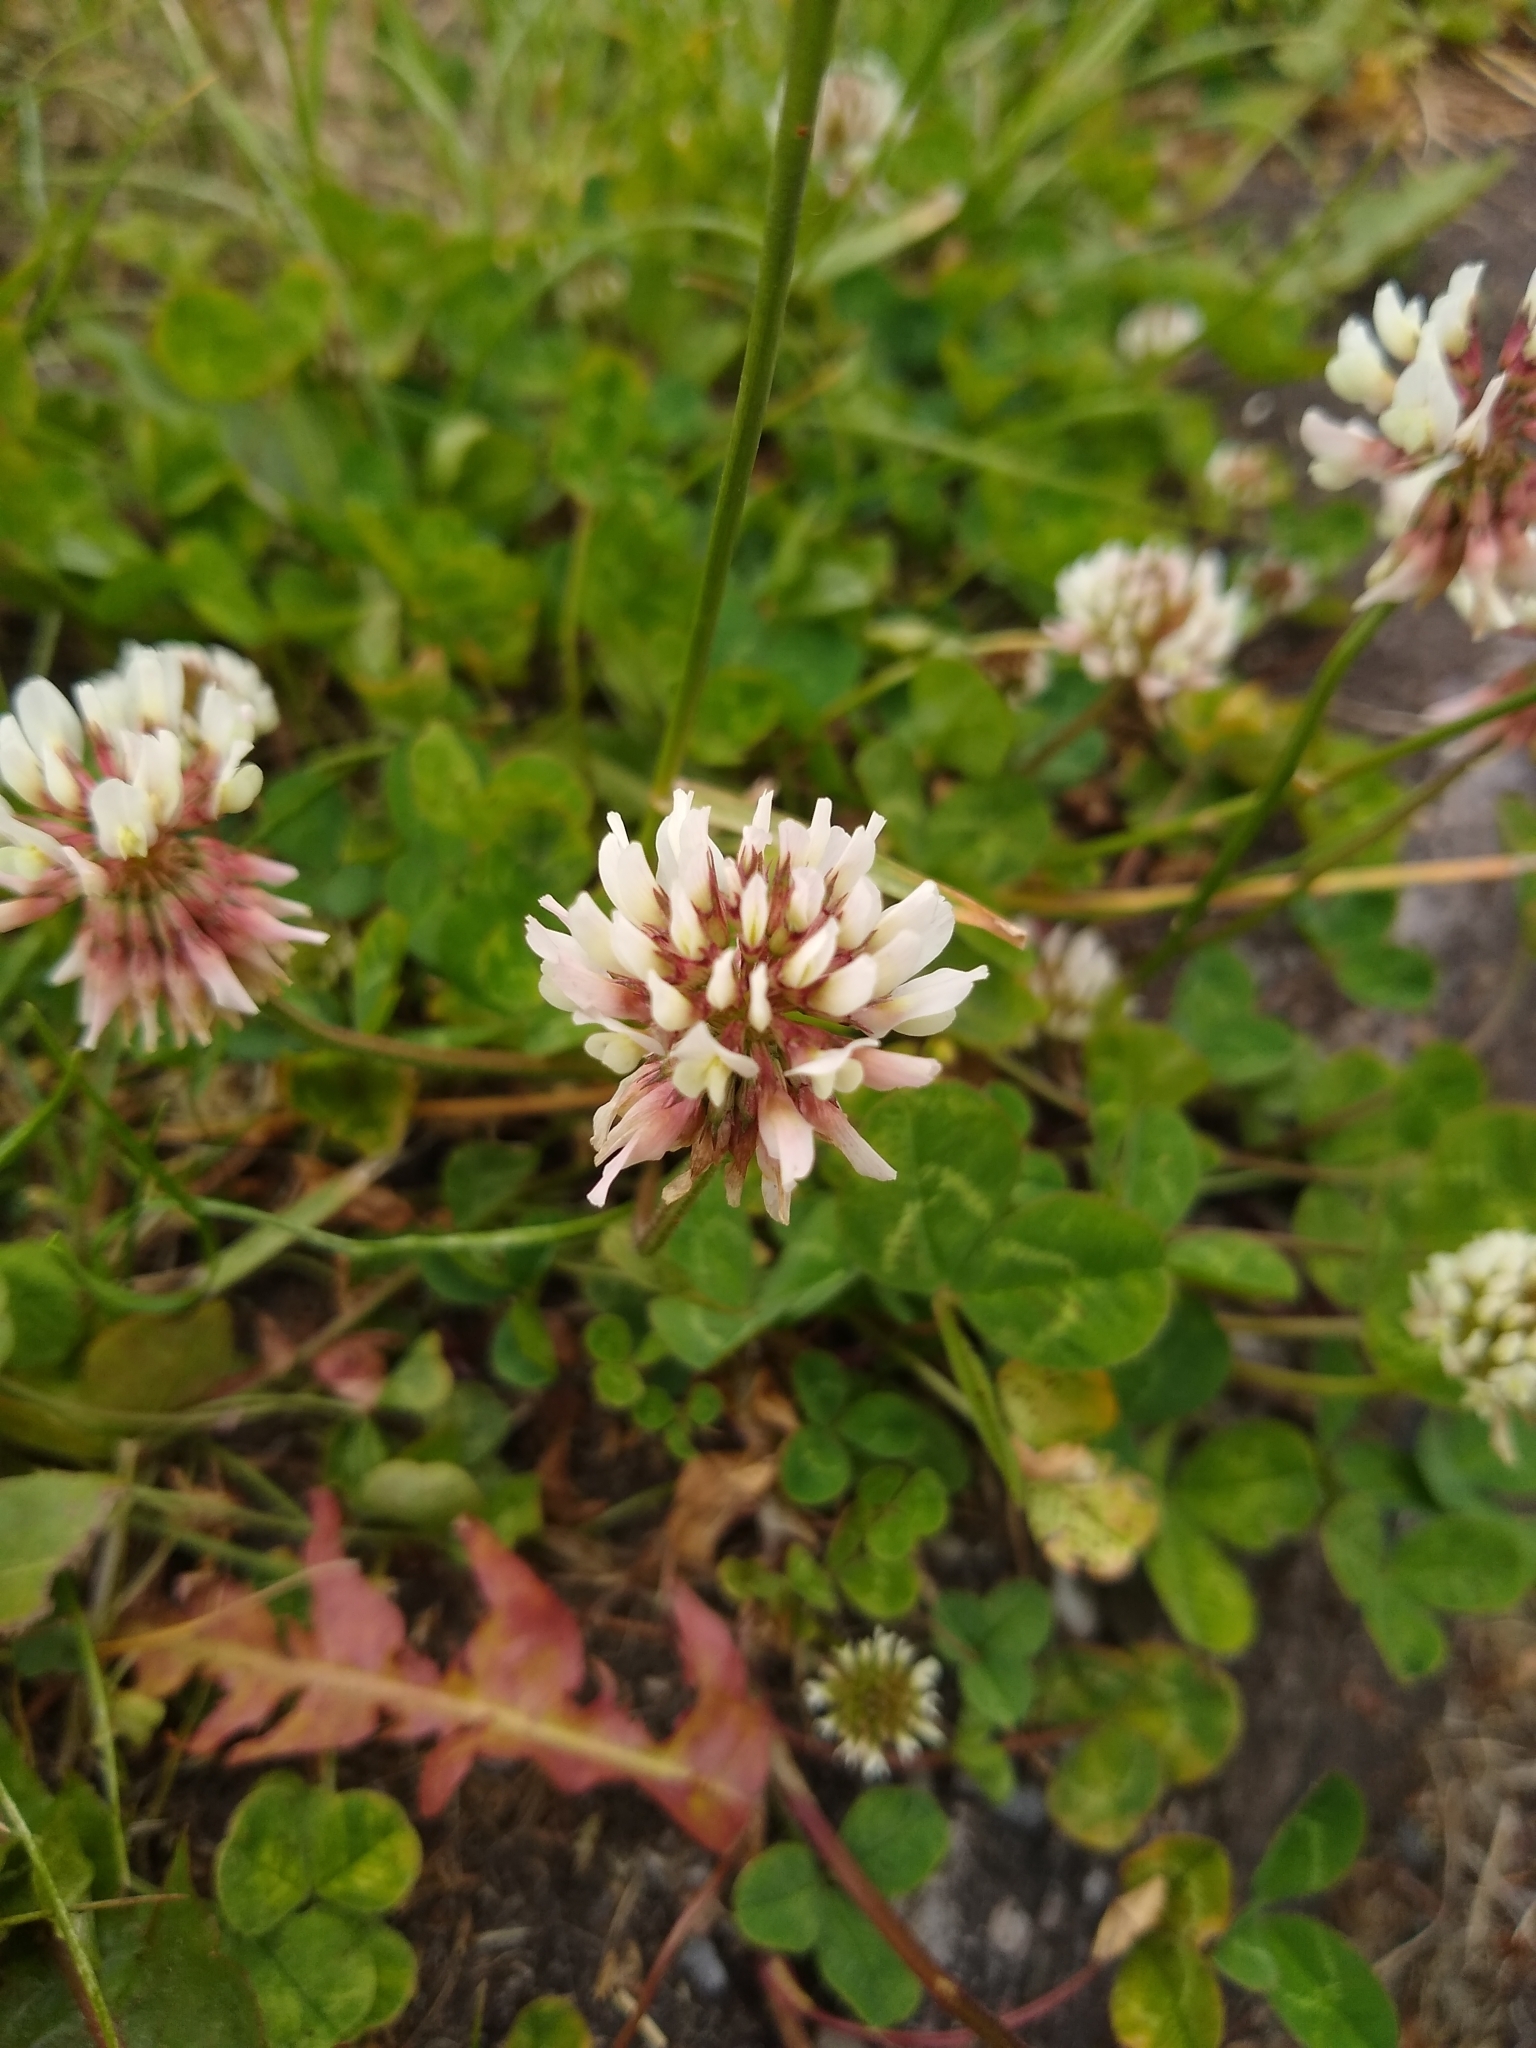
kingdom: Plantae
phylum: Tracheophyta
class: Magnoliopsida
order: Fabales
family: Fabaceae
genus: Trifolium
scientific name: Trifolium repens
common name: White clover
